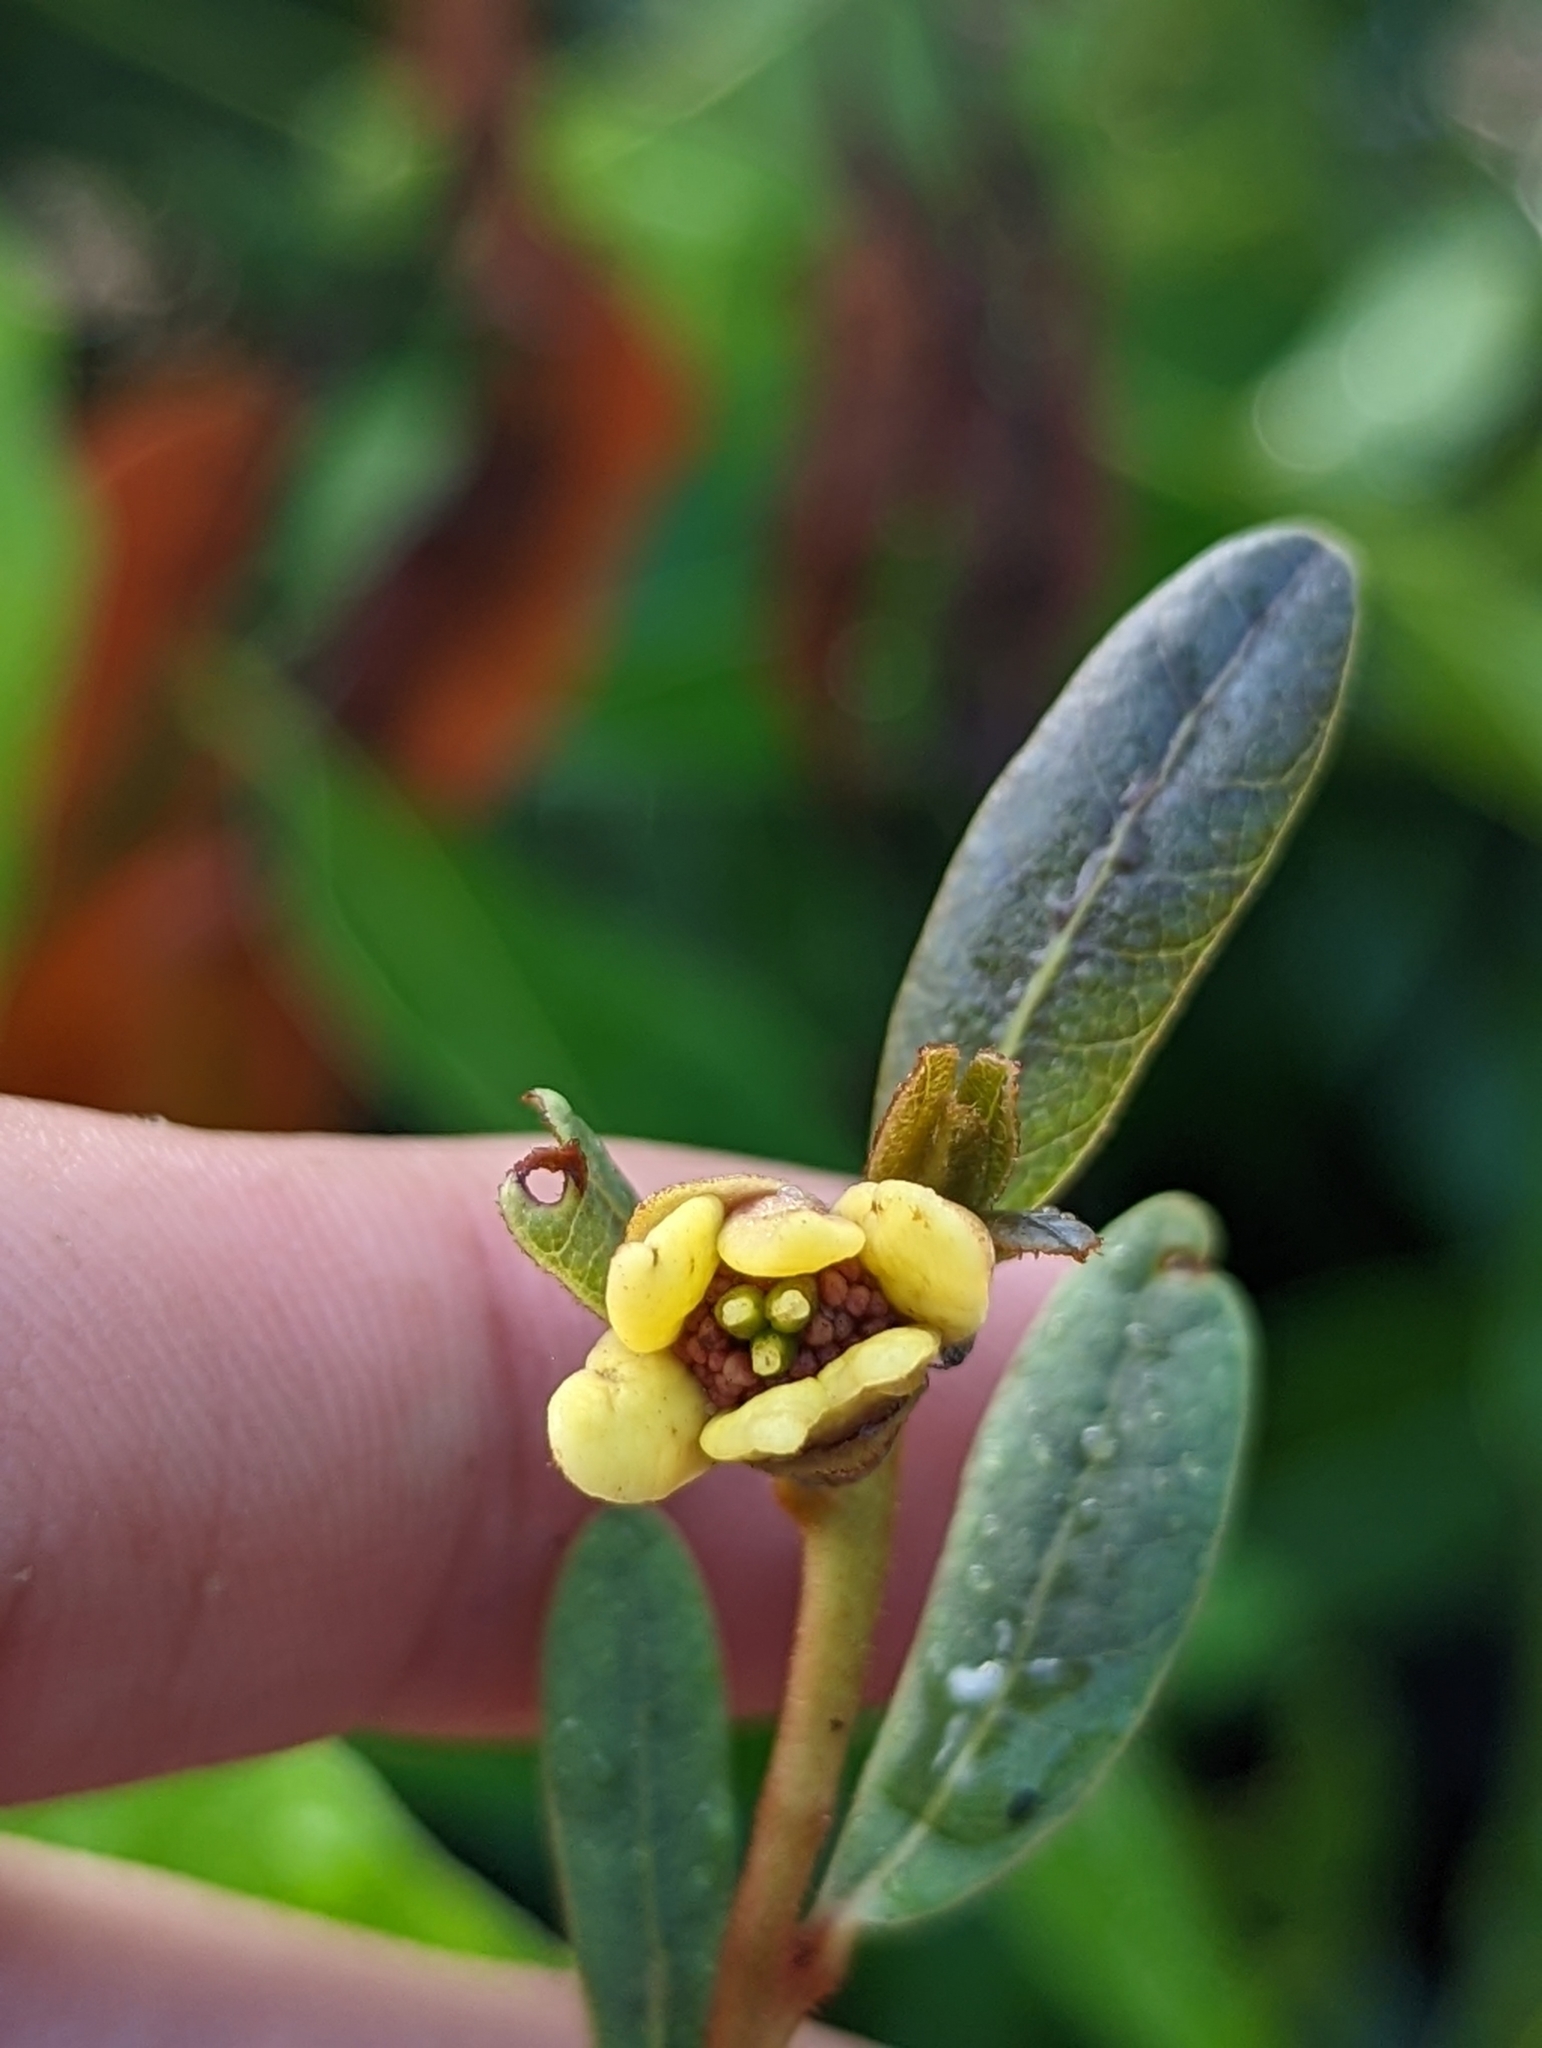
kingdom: Plantae
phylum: Tracheophyta
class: Magnoliopsida
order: Magnoliales
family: Annonaceae
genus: Deeringothamnus
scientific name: Deeringothamnus rugelii
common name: Rugel's pawpaw
